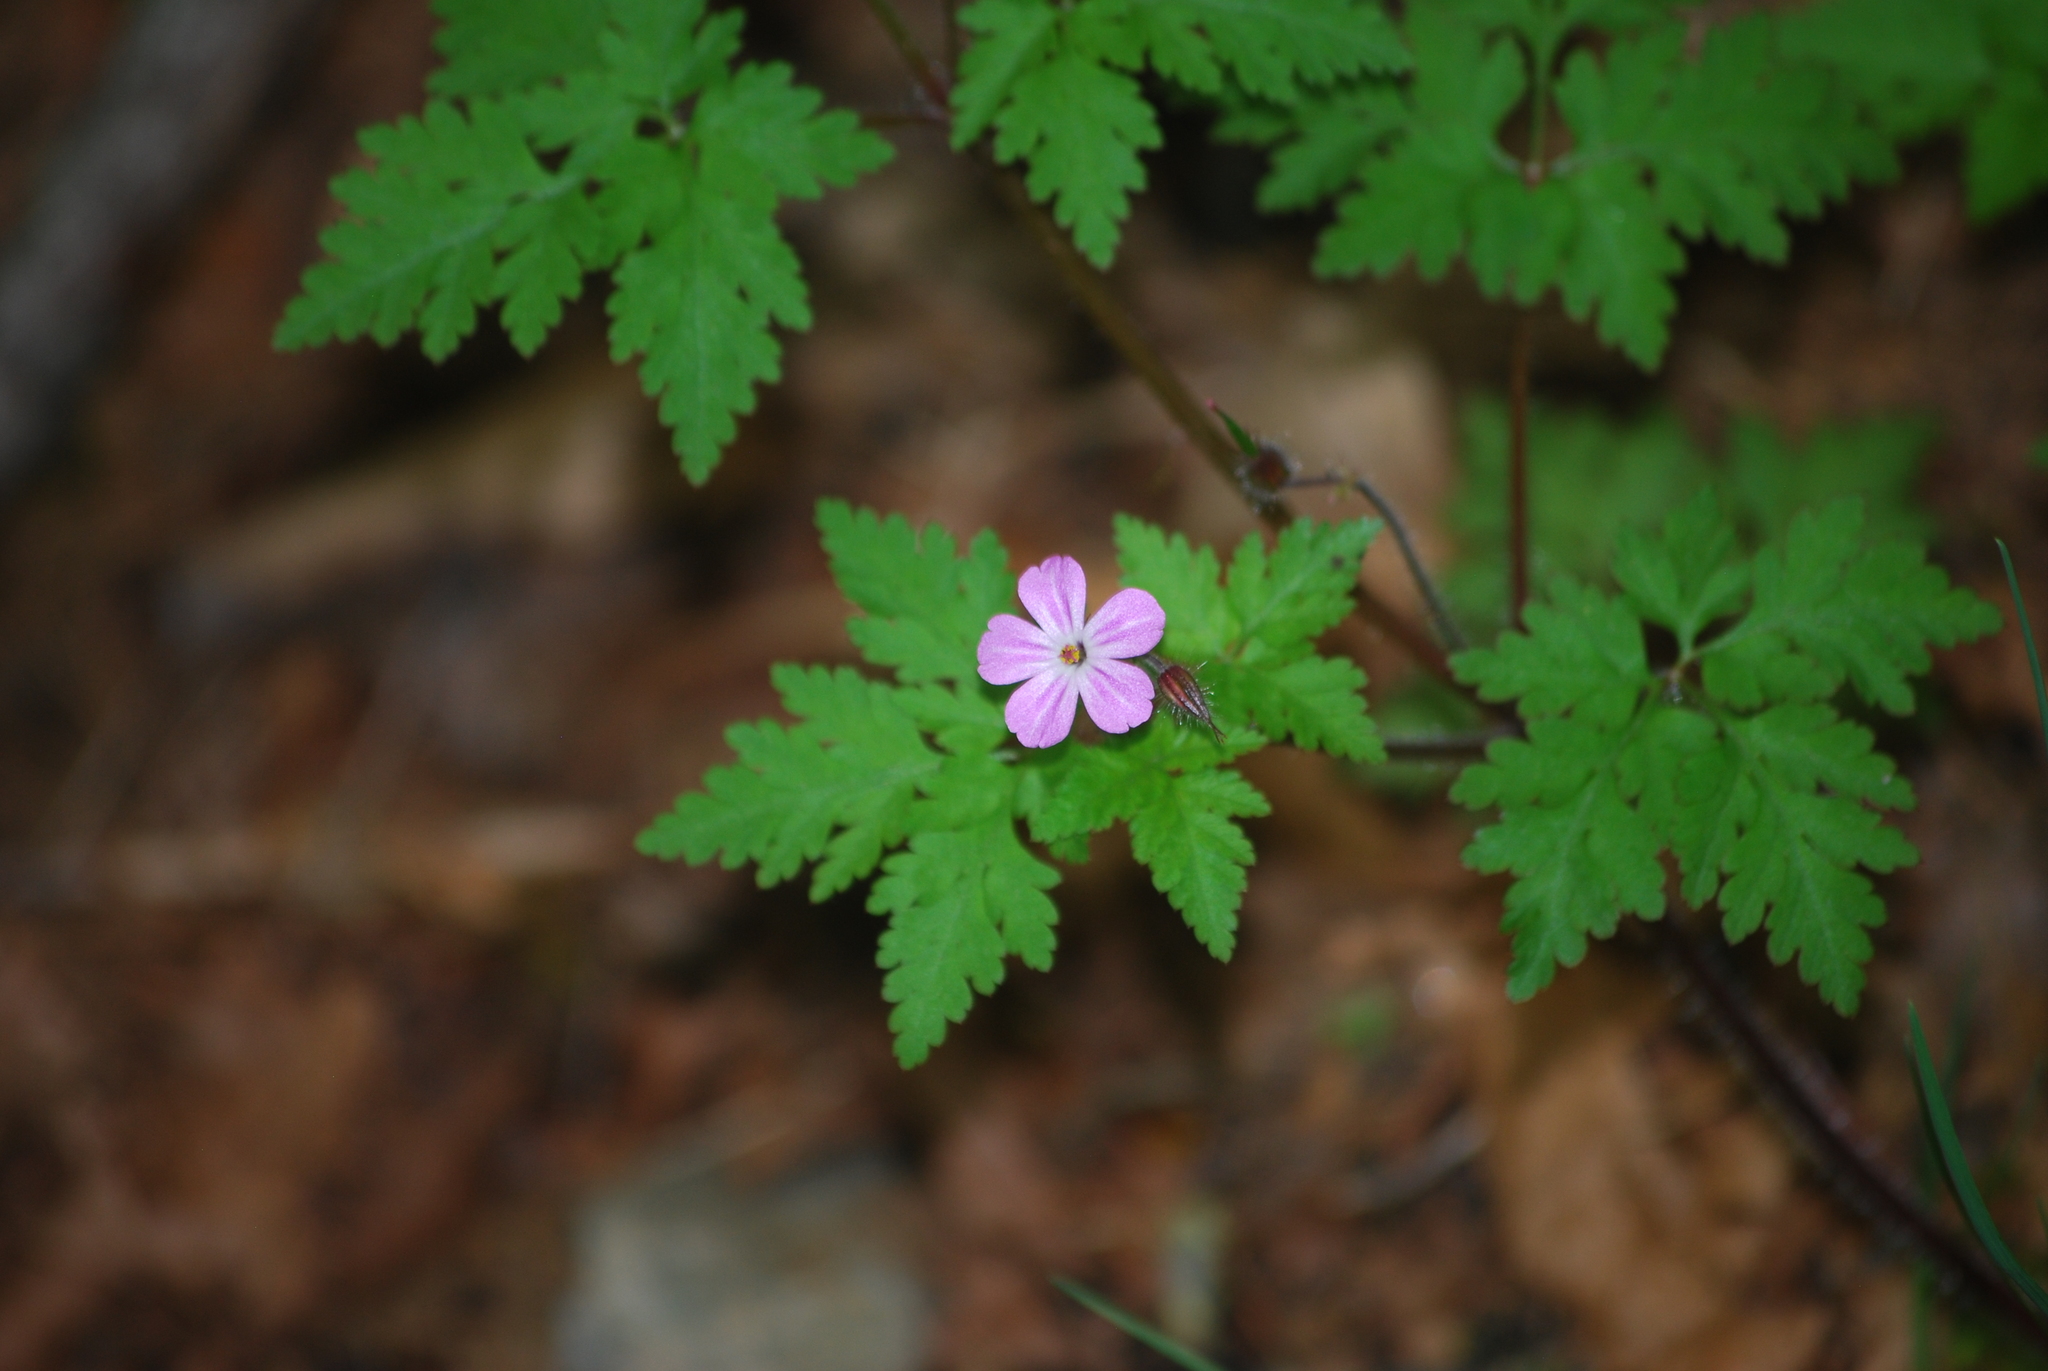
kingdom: Plantae
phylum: Tracheophyta
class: Magnoliopsida
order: Geraniales
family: Geraniaceae
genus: Geranium
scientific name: Geranium robertianum
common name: Herb-robert
